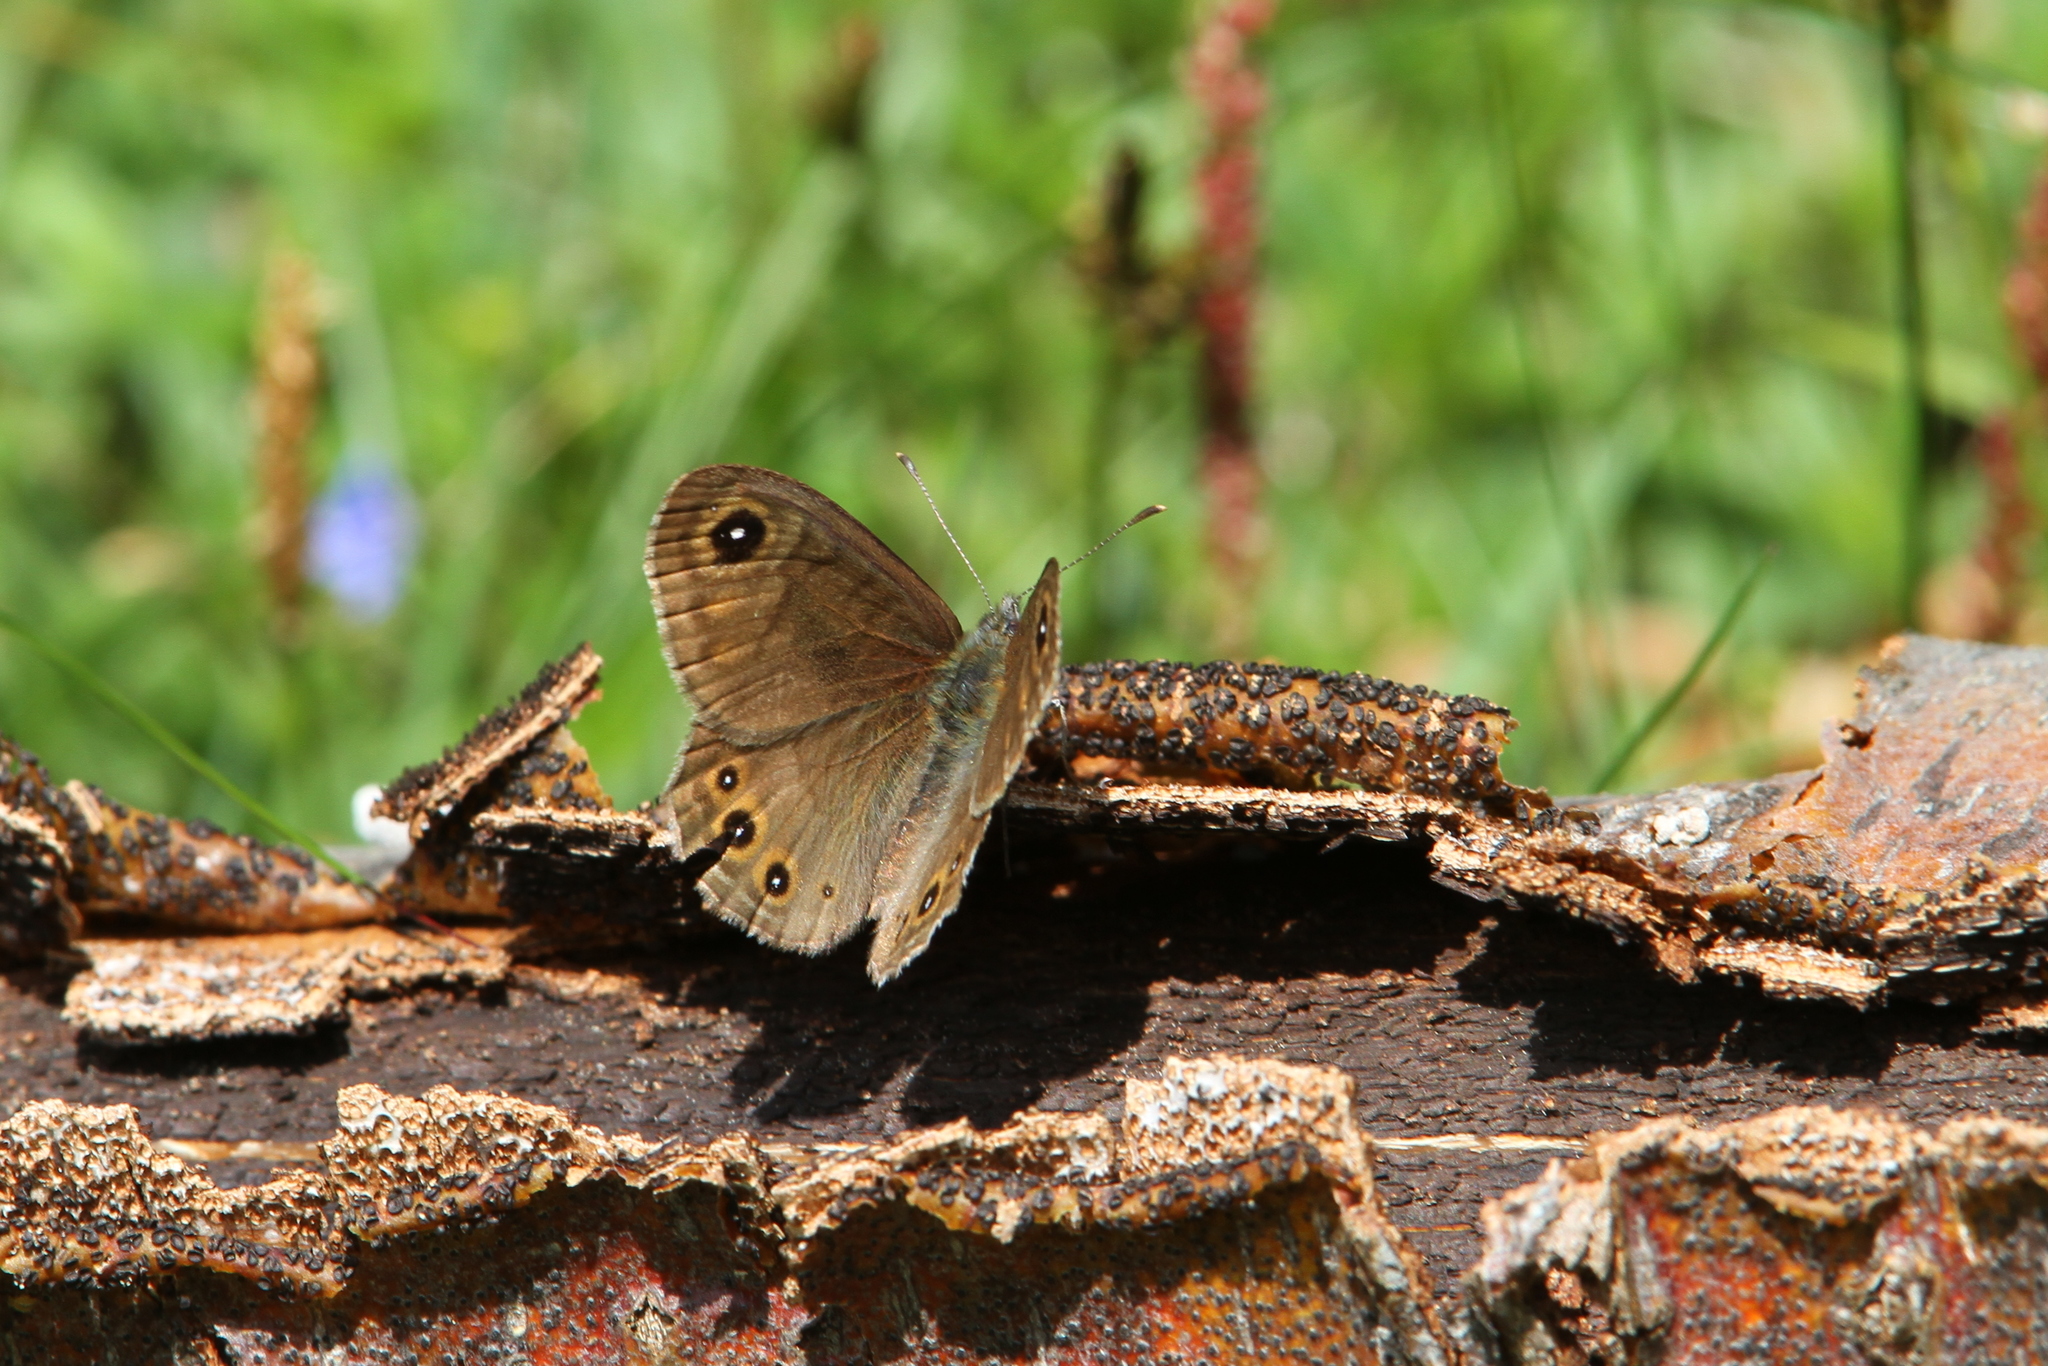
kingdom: Animalia
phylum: Arthropoda
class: Insecta
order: Lepidoptera
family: Nymphalidae
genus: Pararge
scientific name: Pararge petropolitana
